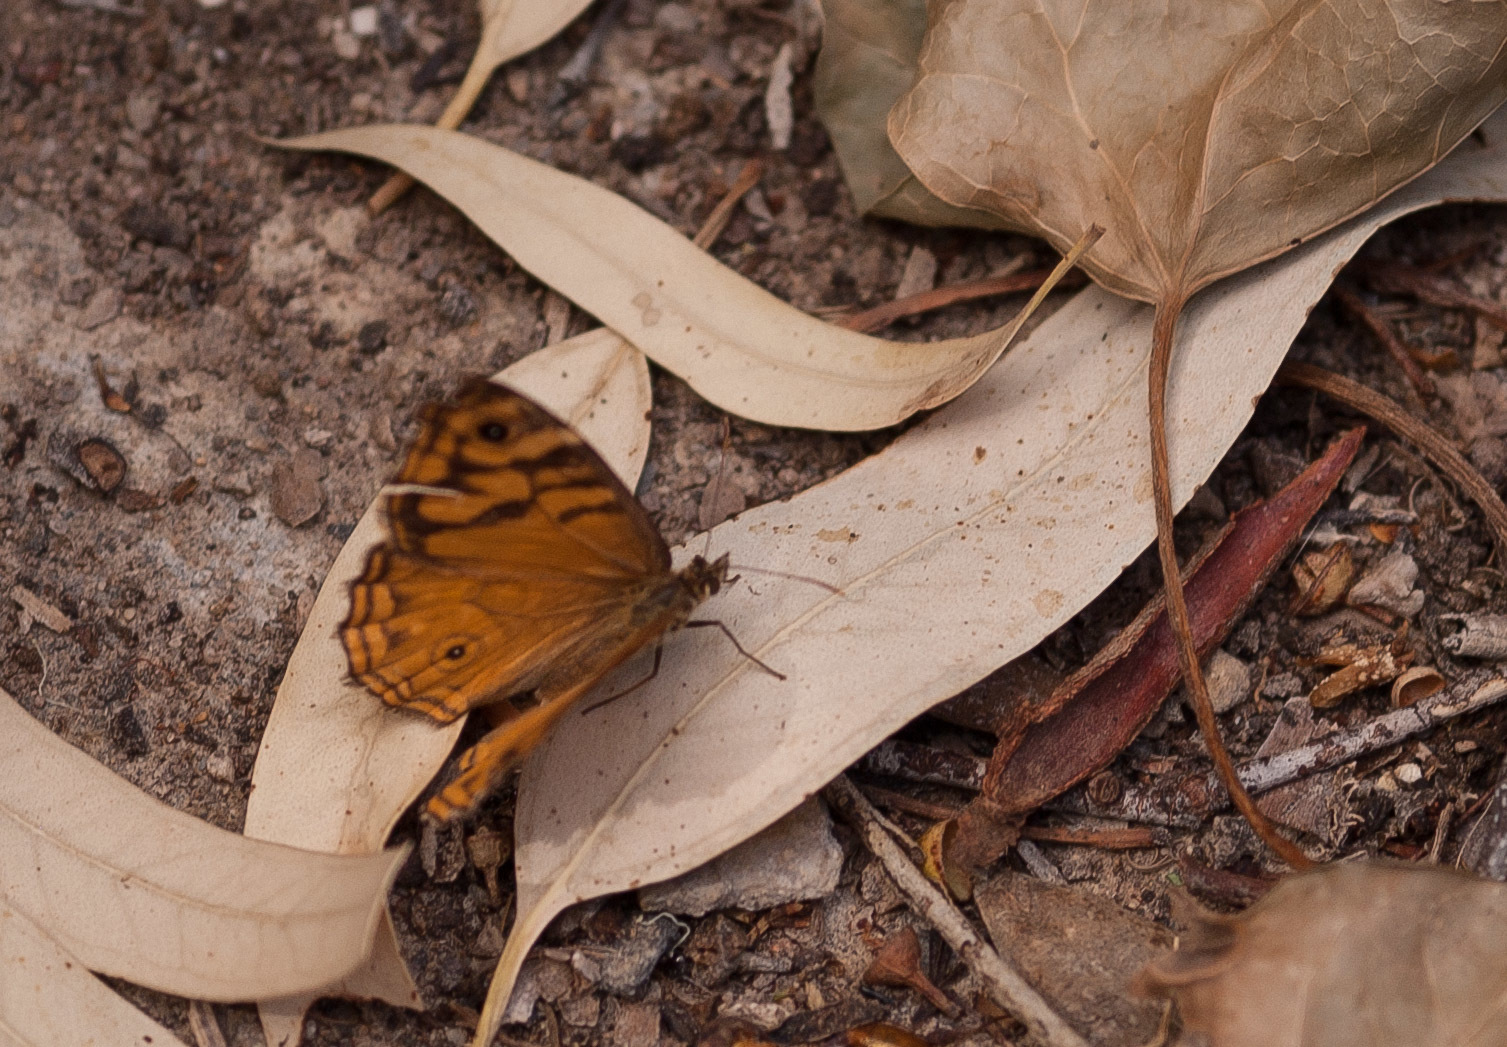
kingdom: Animalia
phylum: Arthropoda
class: Insecta
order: Lepidoptera
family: Nymphalidae
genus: Heteronympha
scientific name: Heteronympha merope
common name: Common brown
